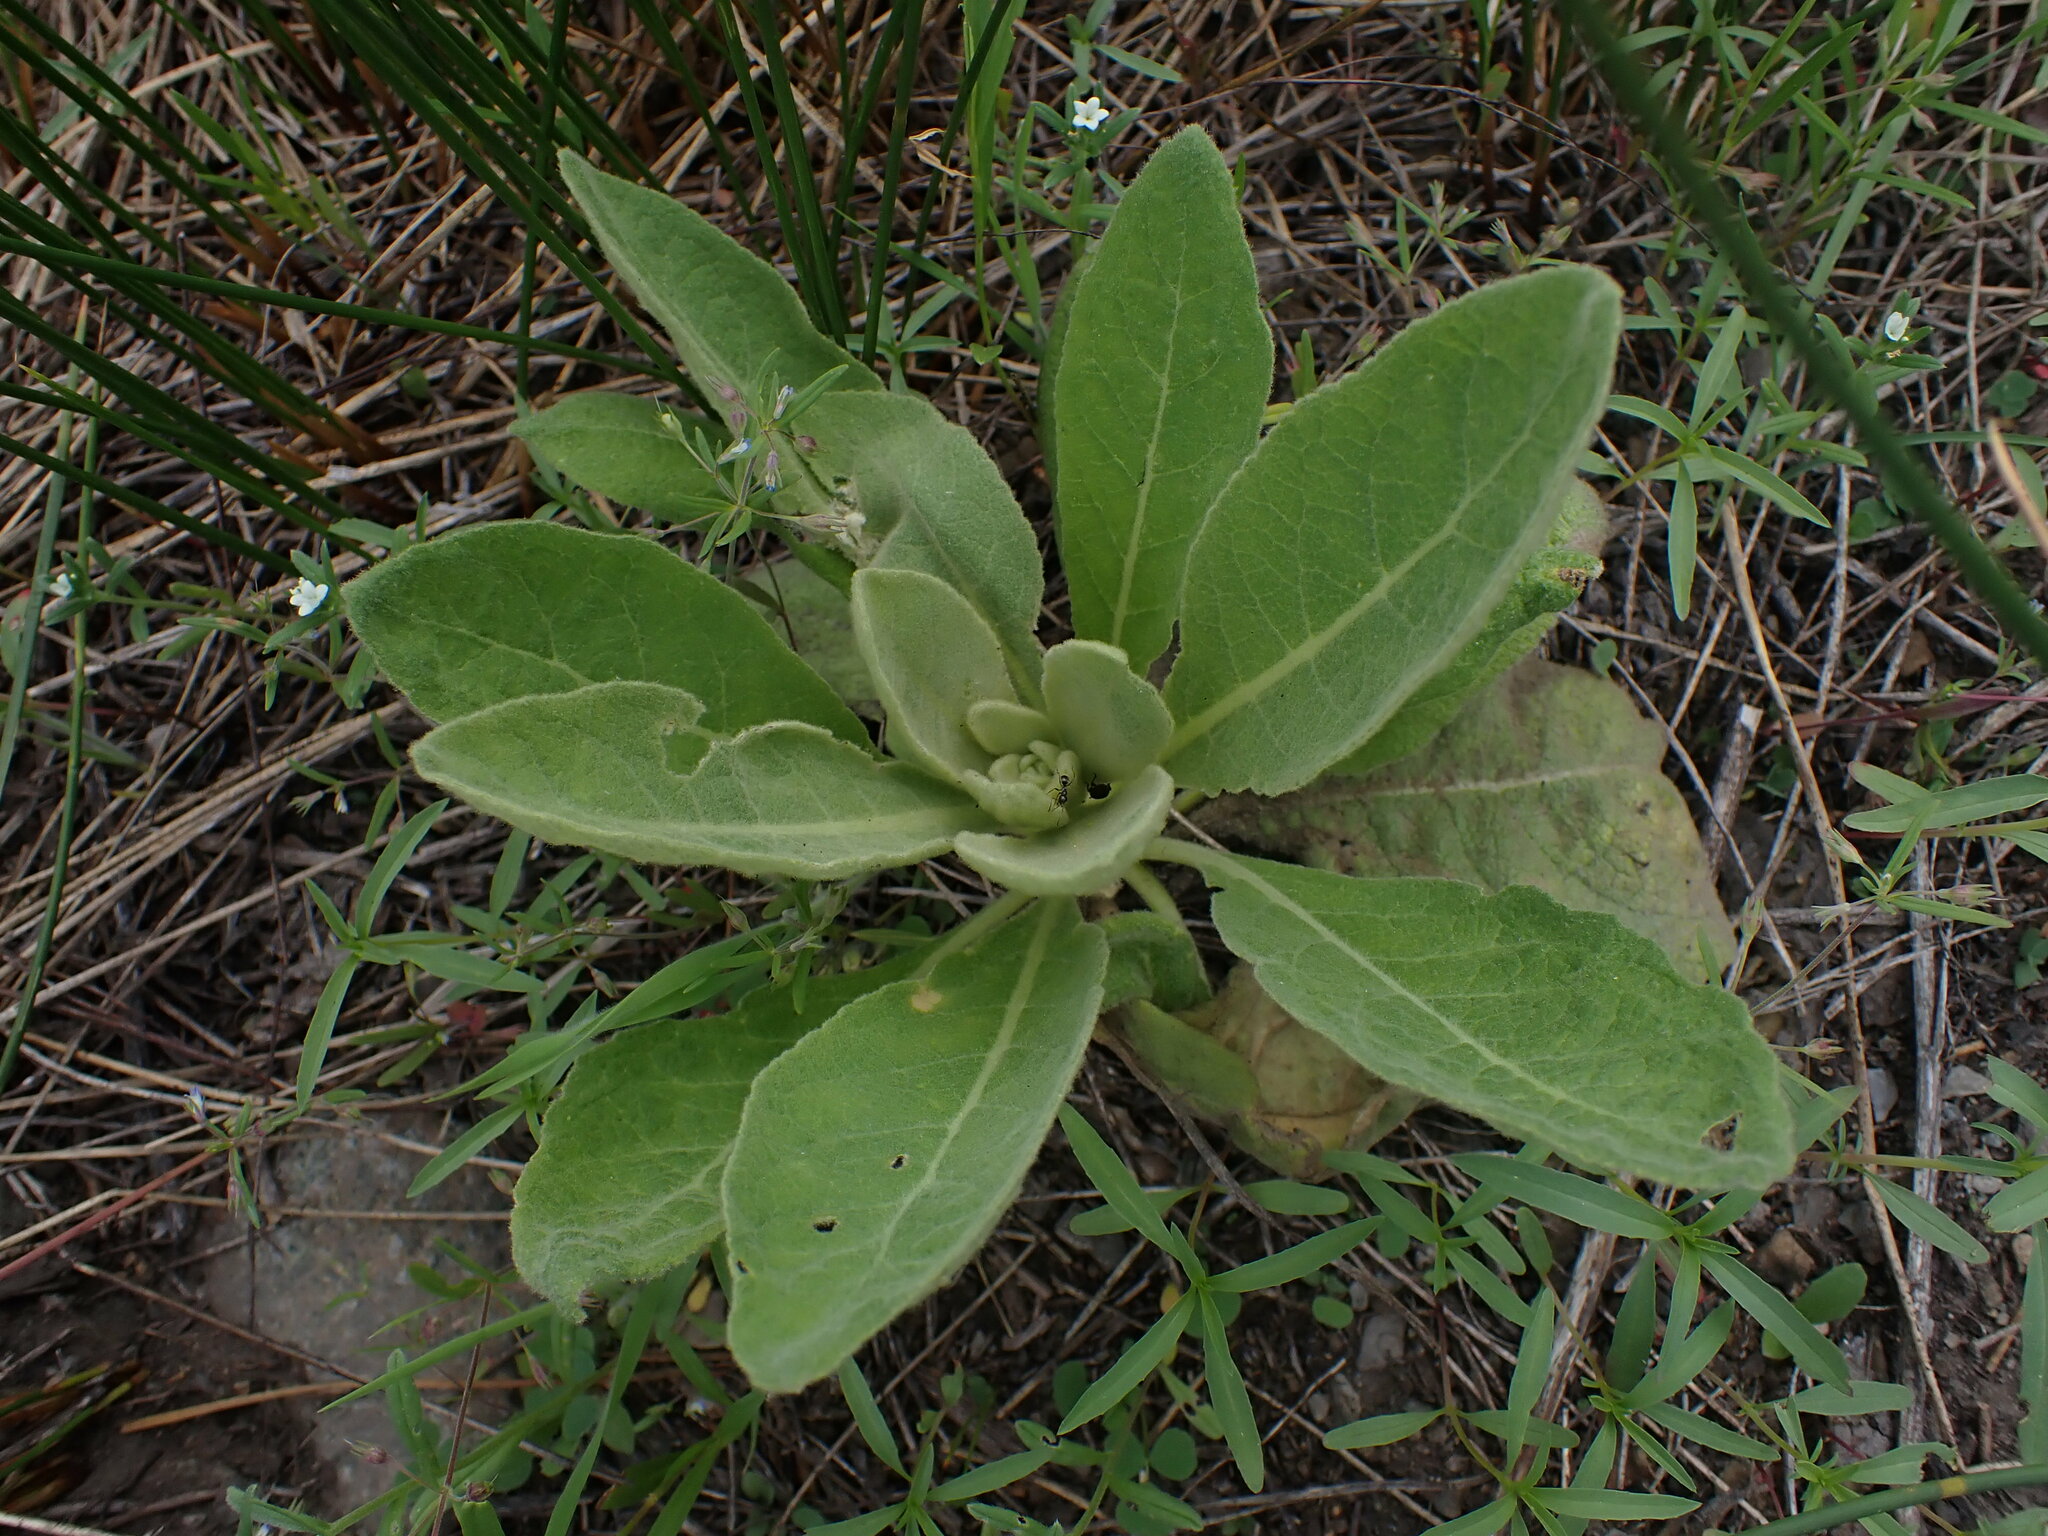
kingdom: Plantae
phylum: Tracheophyta
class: Magnoliopsida
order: Lamiales
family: Scrophulariaceae
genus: Verbascum
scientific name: Verbascum thapsus
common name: Common mullein
